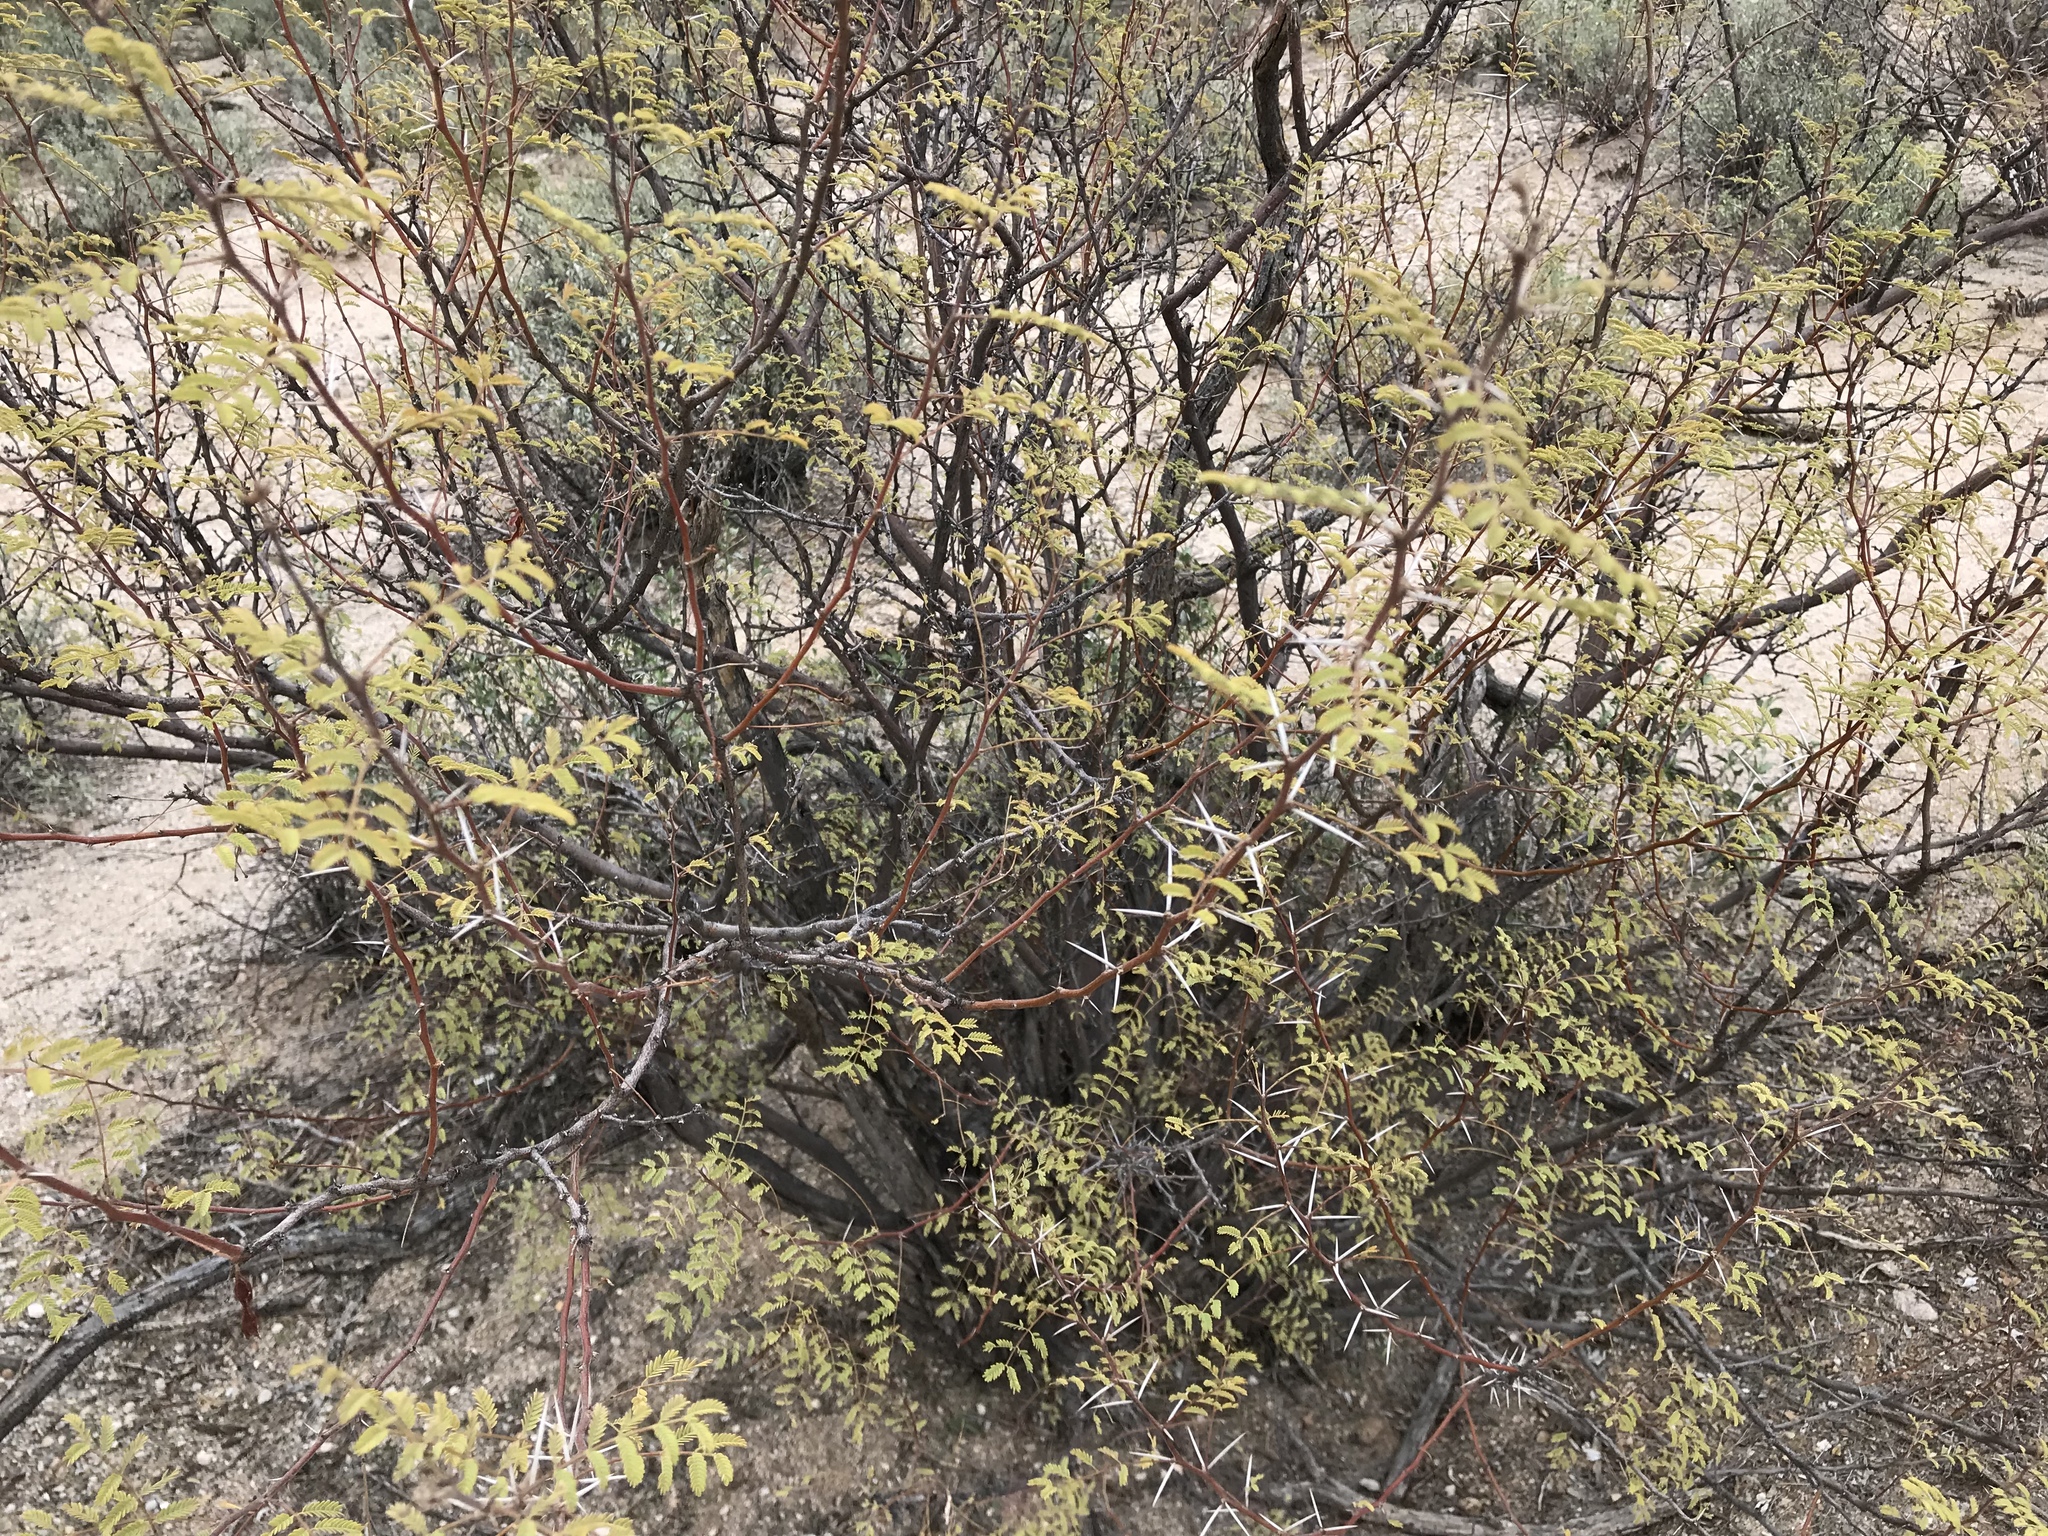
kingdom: Plantae
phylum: Tracheophyta
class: Magnoliopsida
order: Fabales
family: Fabaceae
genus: Vachellia
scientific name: Vachellia constricta
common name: Mescat acacia
